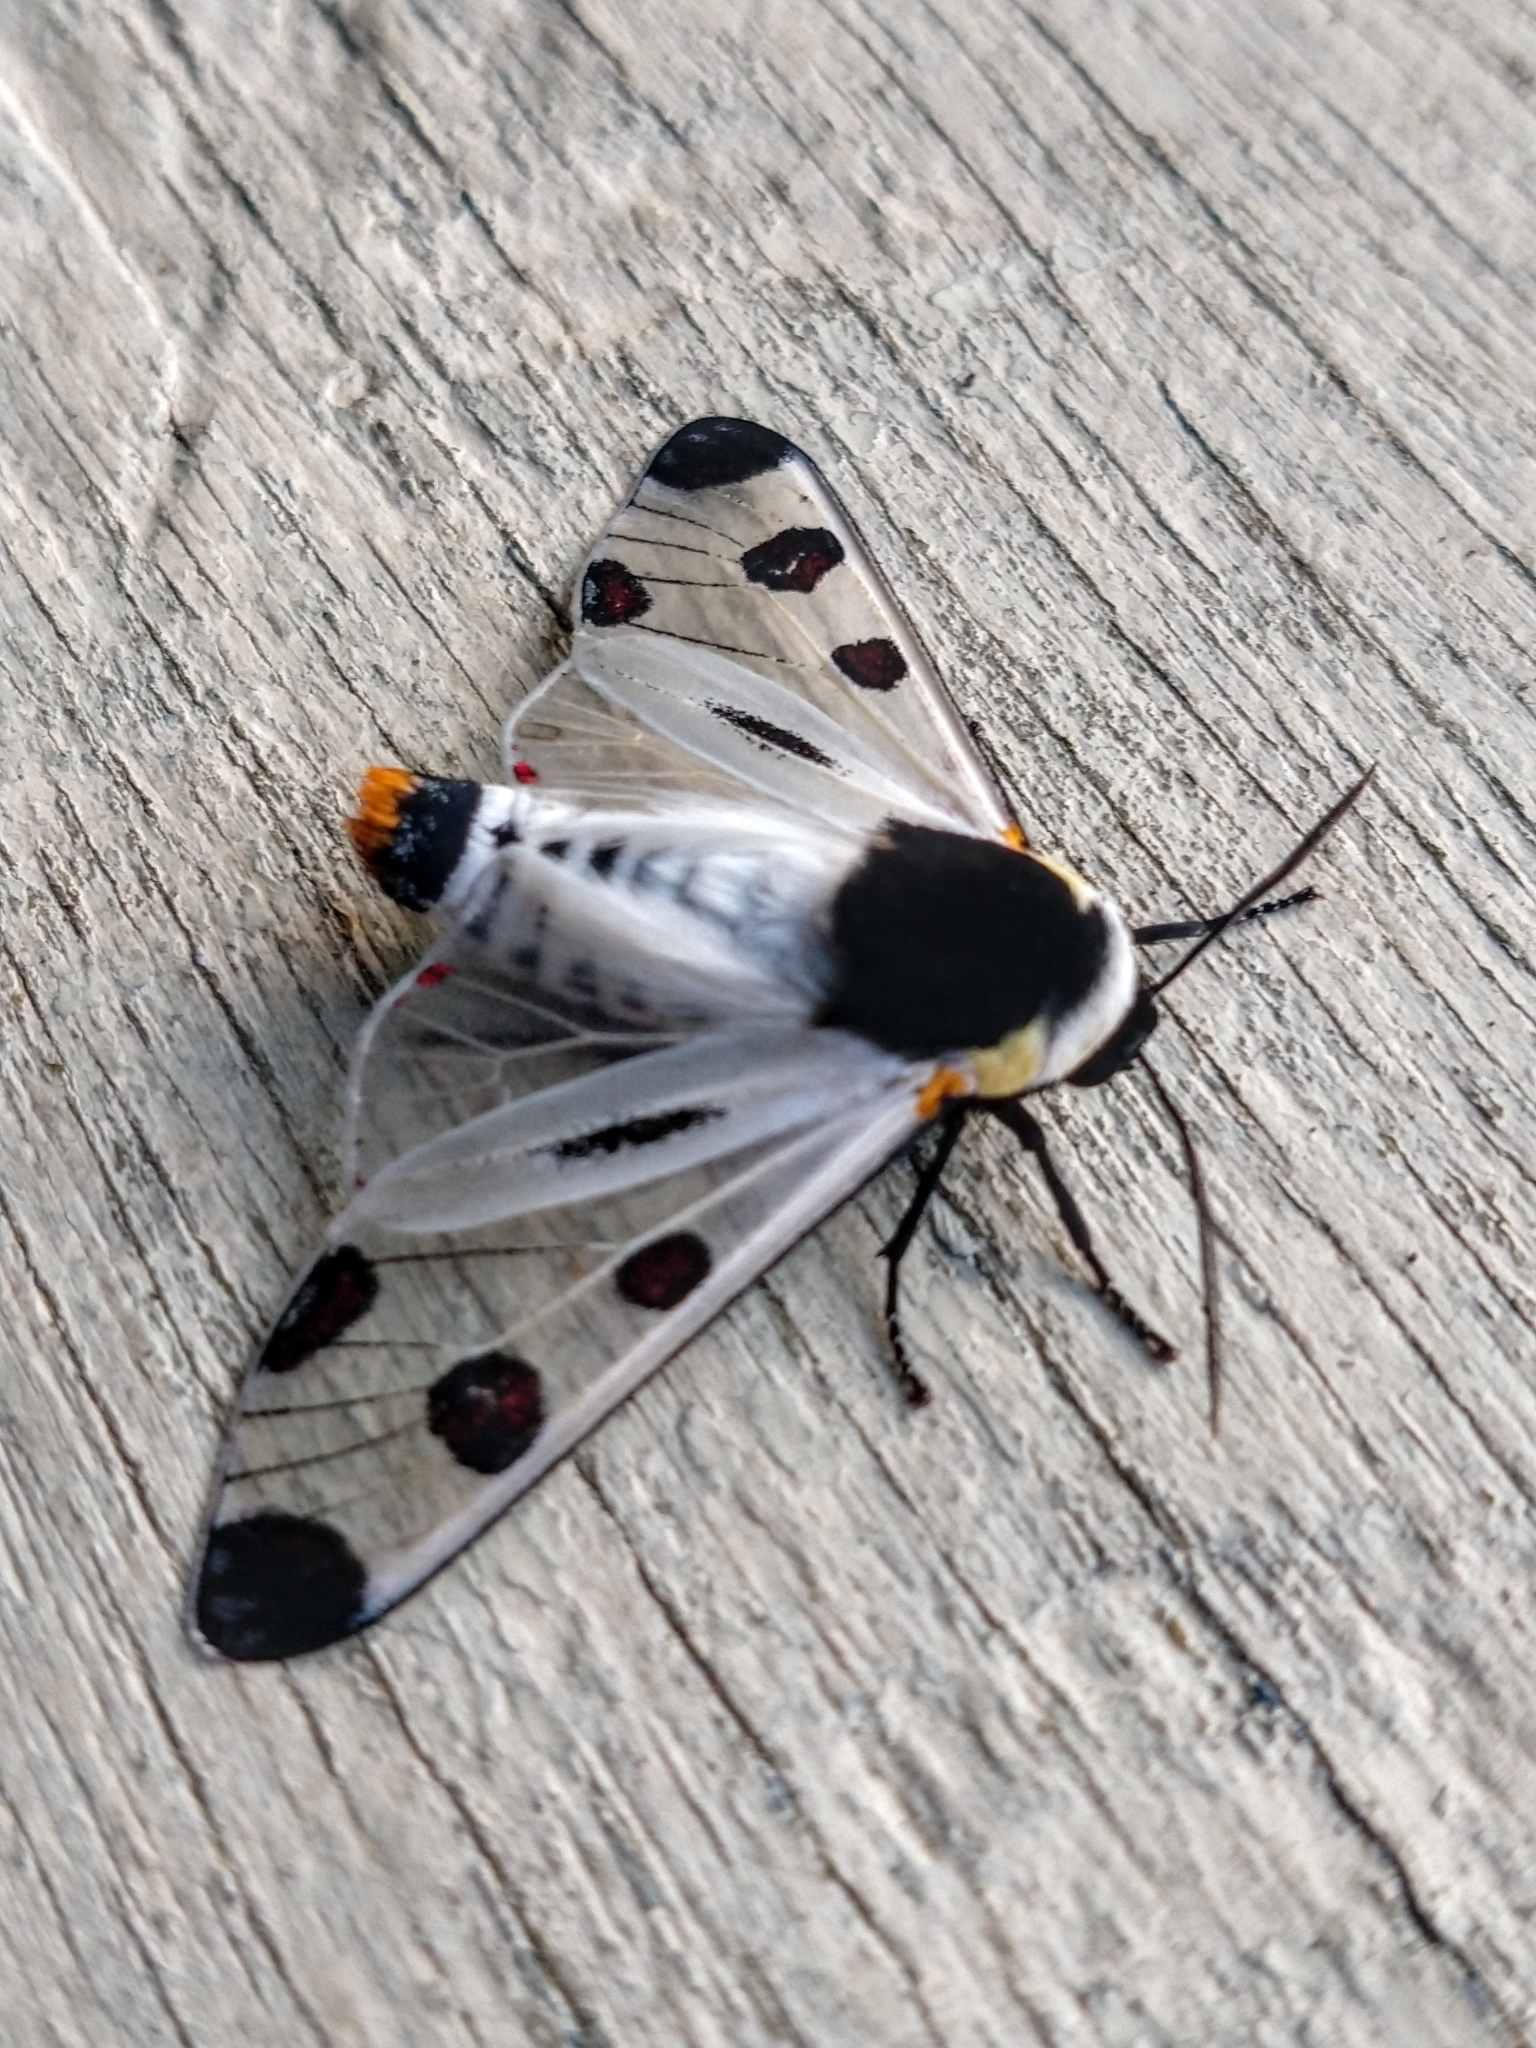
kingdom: Animalia
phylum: Arthropoda
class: Insecta
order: Lepidoptera
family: Erebidae
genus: Dysschema
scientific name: Dysschema boisduvalii
